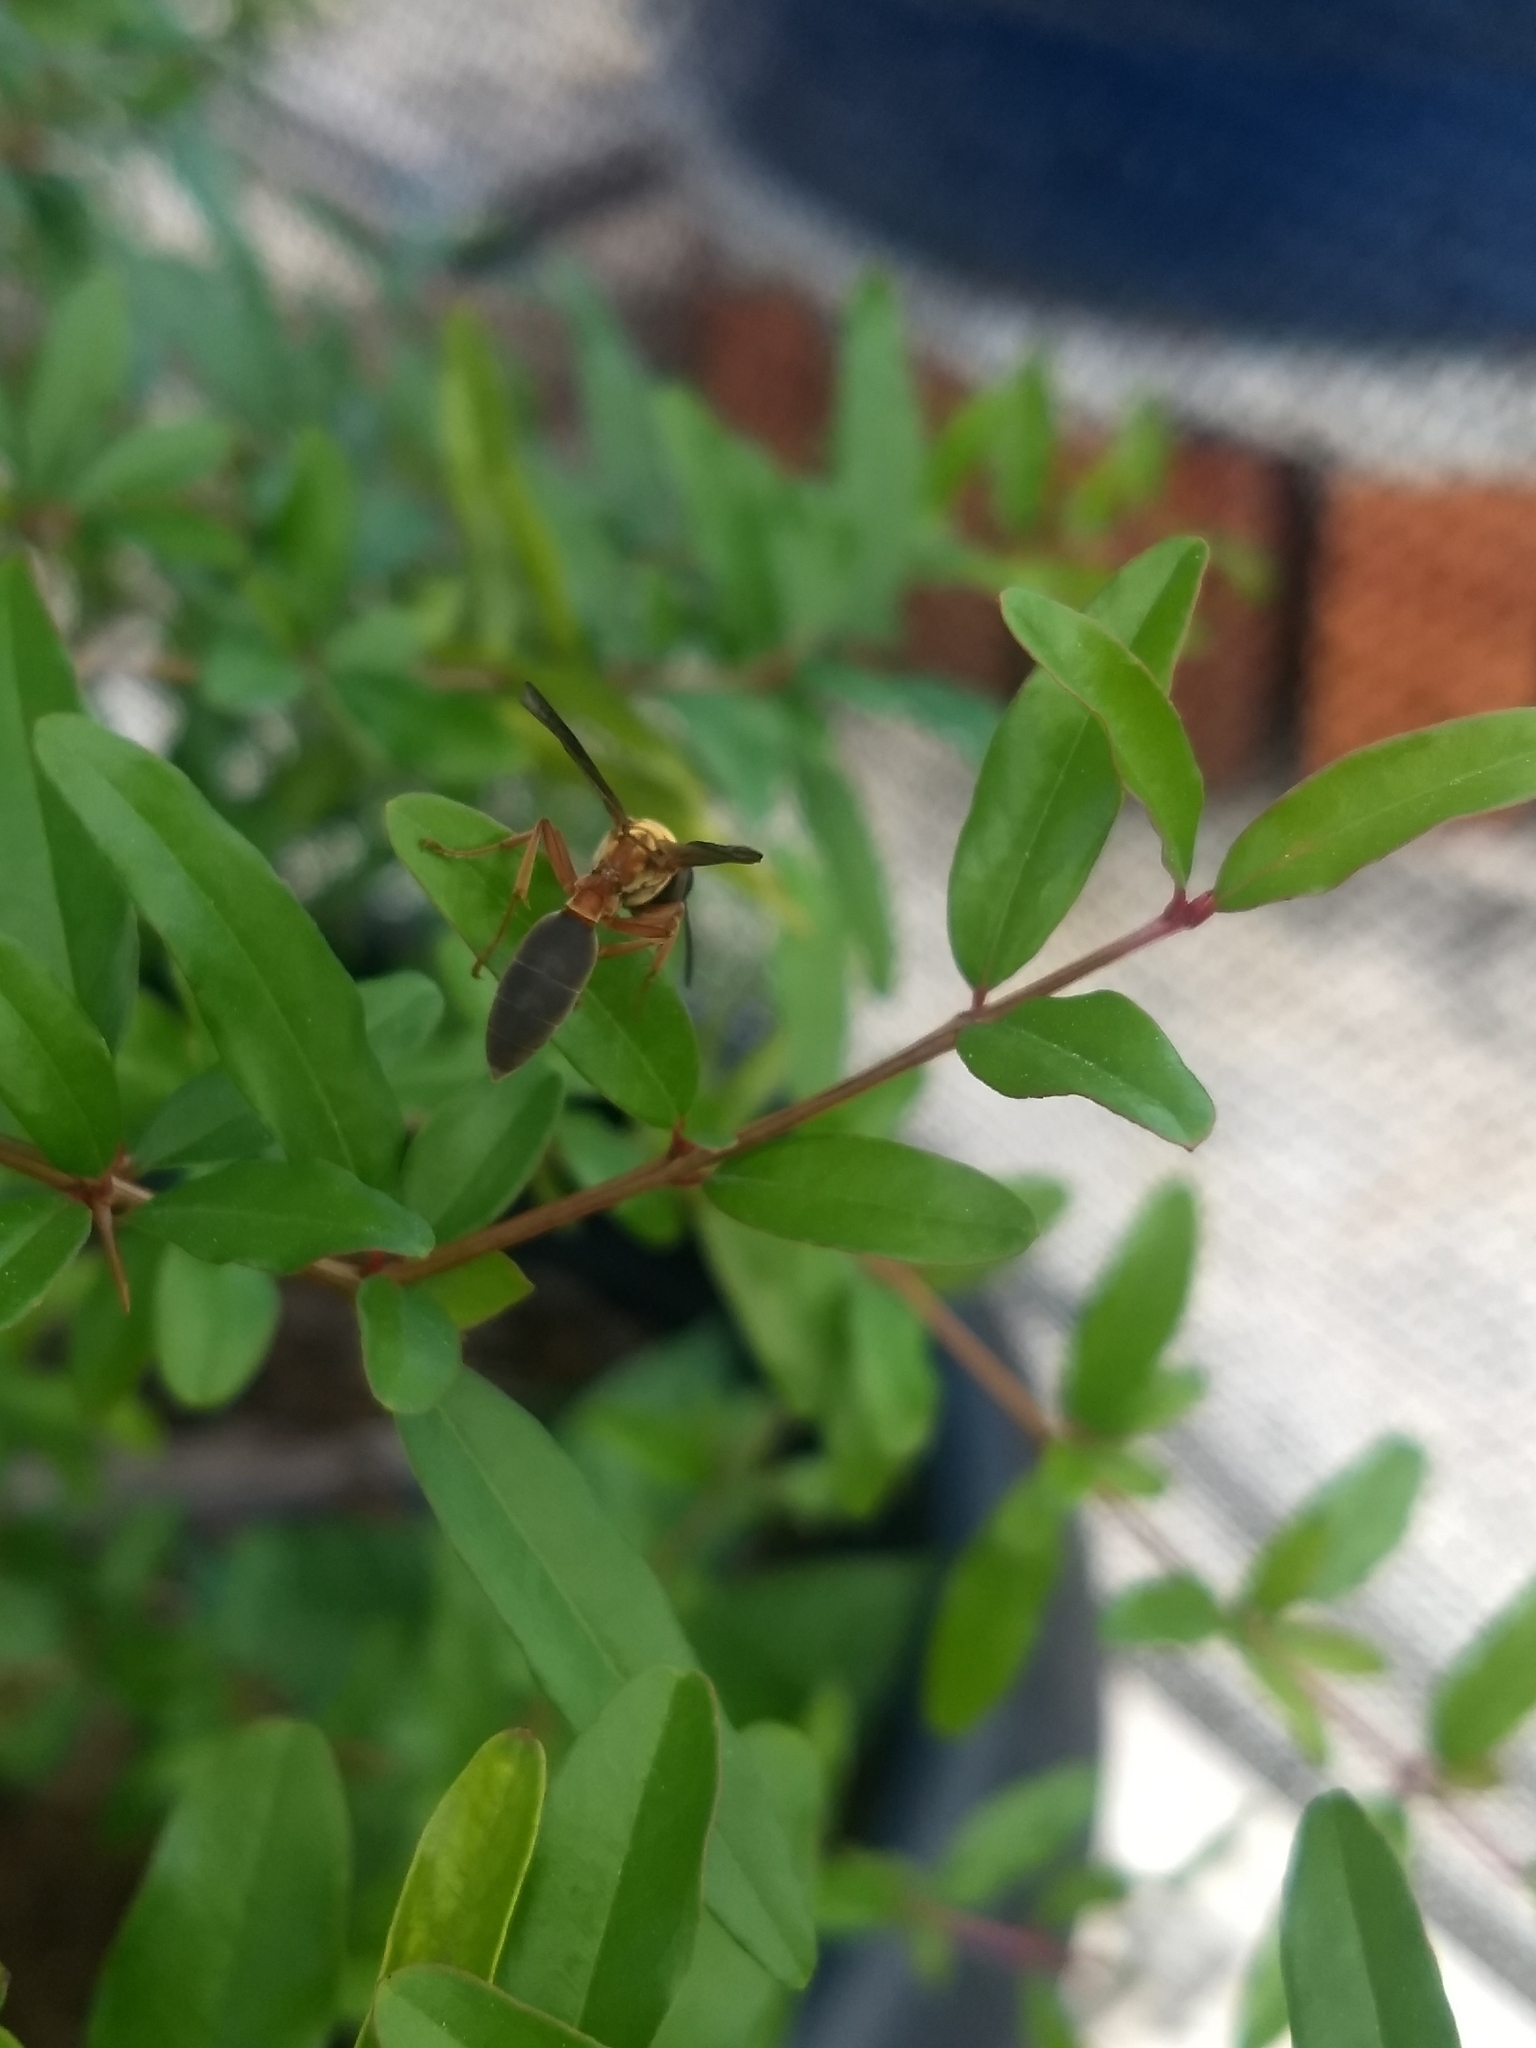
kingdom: Animalia
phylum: Arthropoda
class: Insecta
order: Hymenoptera
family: Eumenidae
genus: Polybia
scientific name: Polybia sericea
